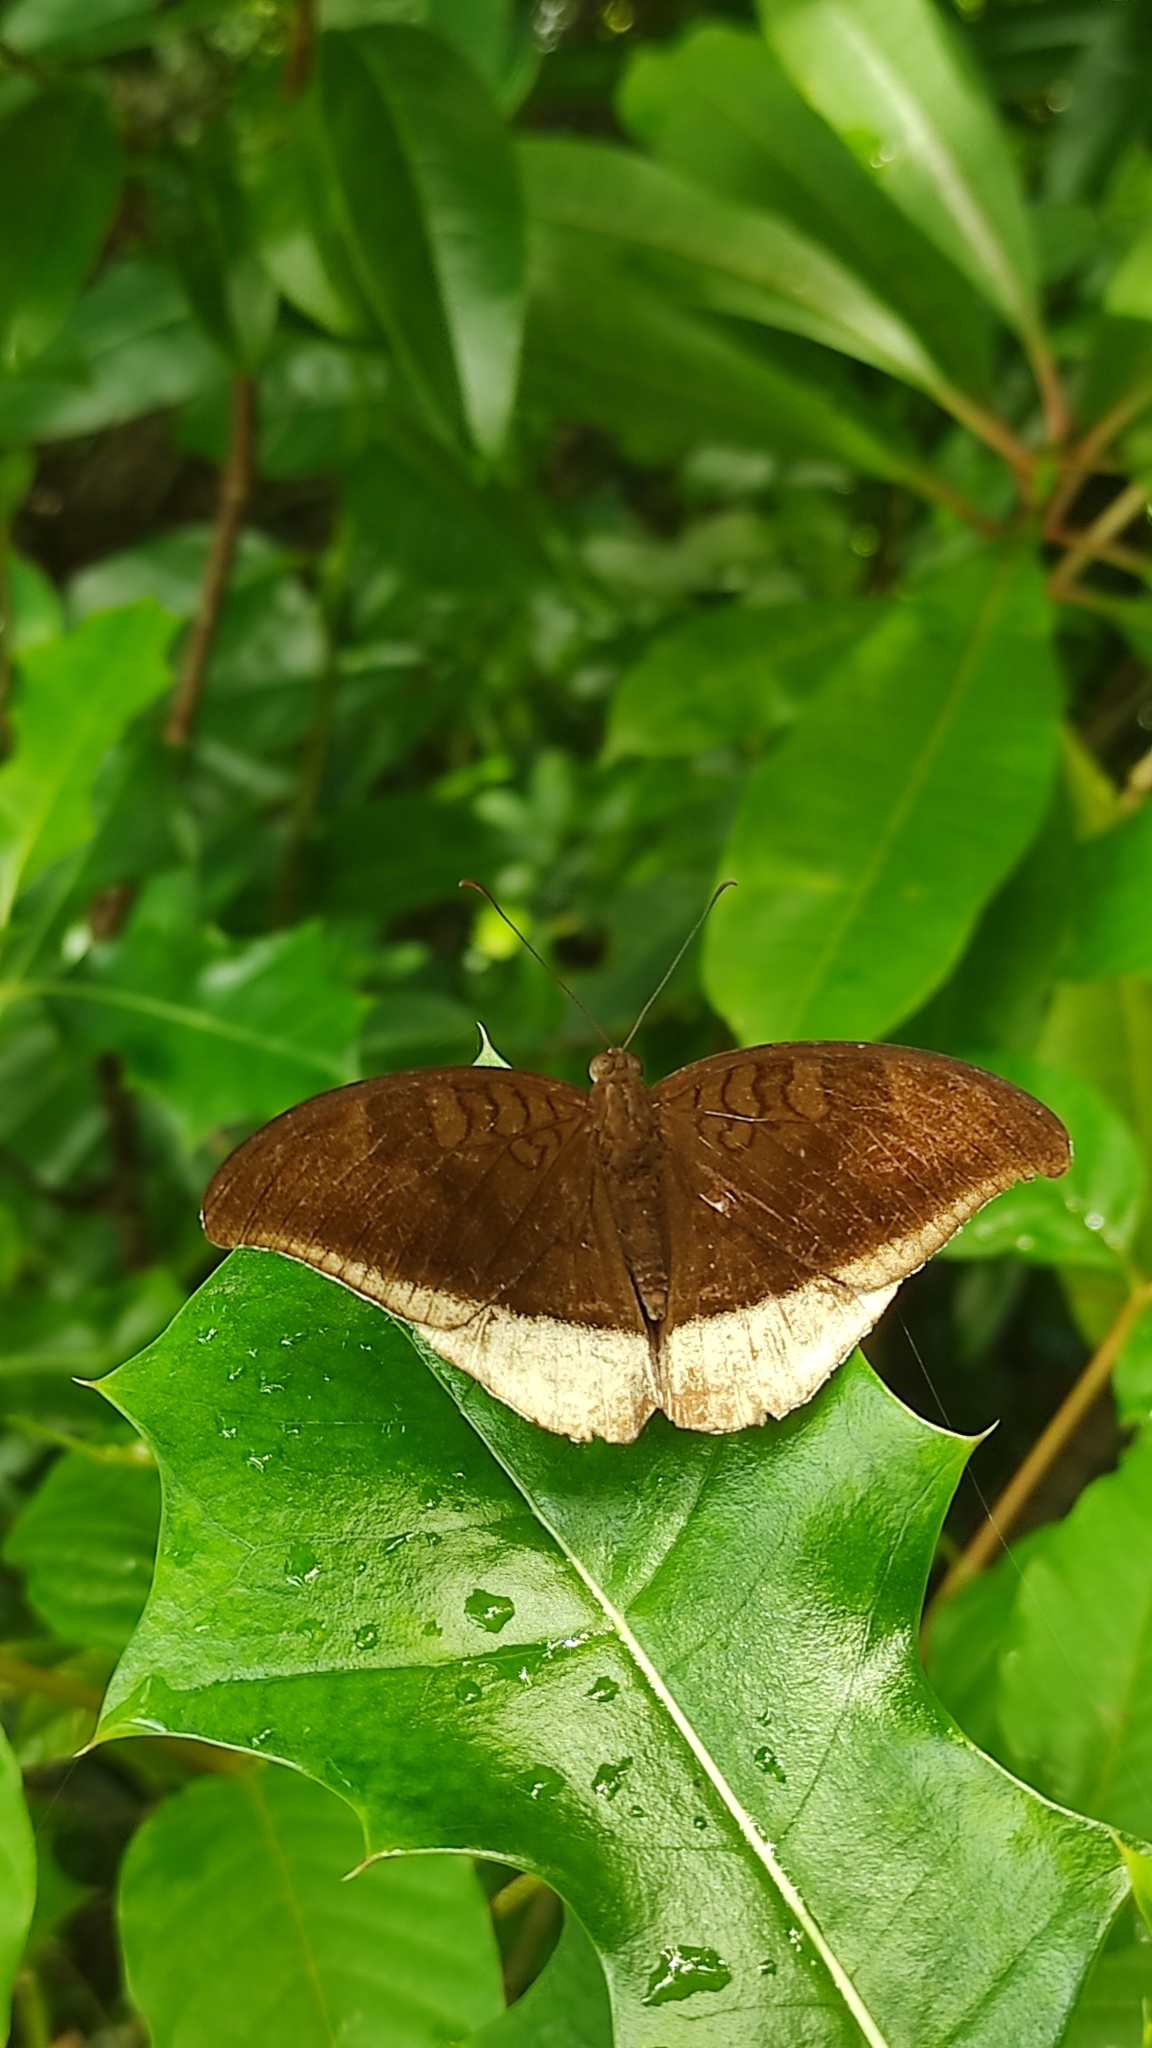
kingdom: Animalia
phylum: Arthropoda
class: Insecta
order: Lepidoptera
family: Nymphalidae
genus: Tanaecia
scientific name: Tanaecia lepidea
